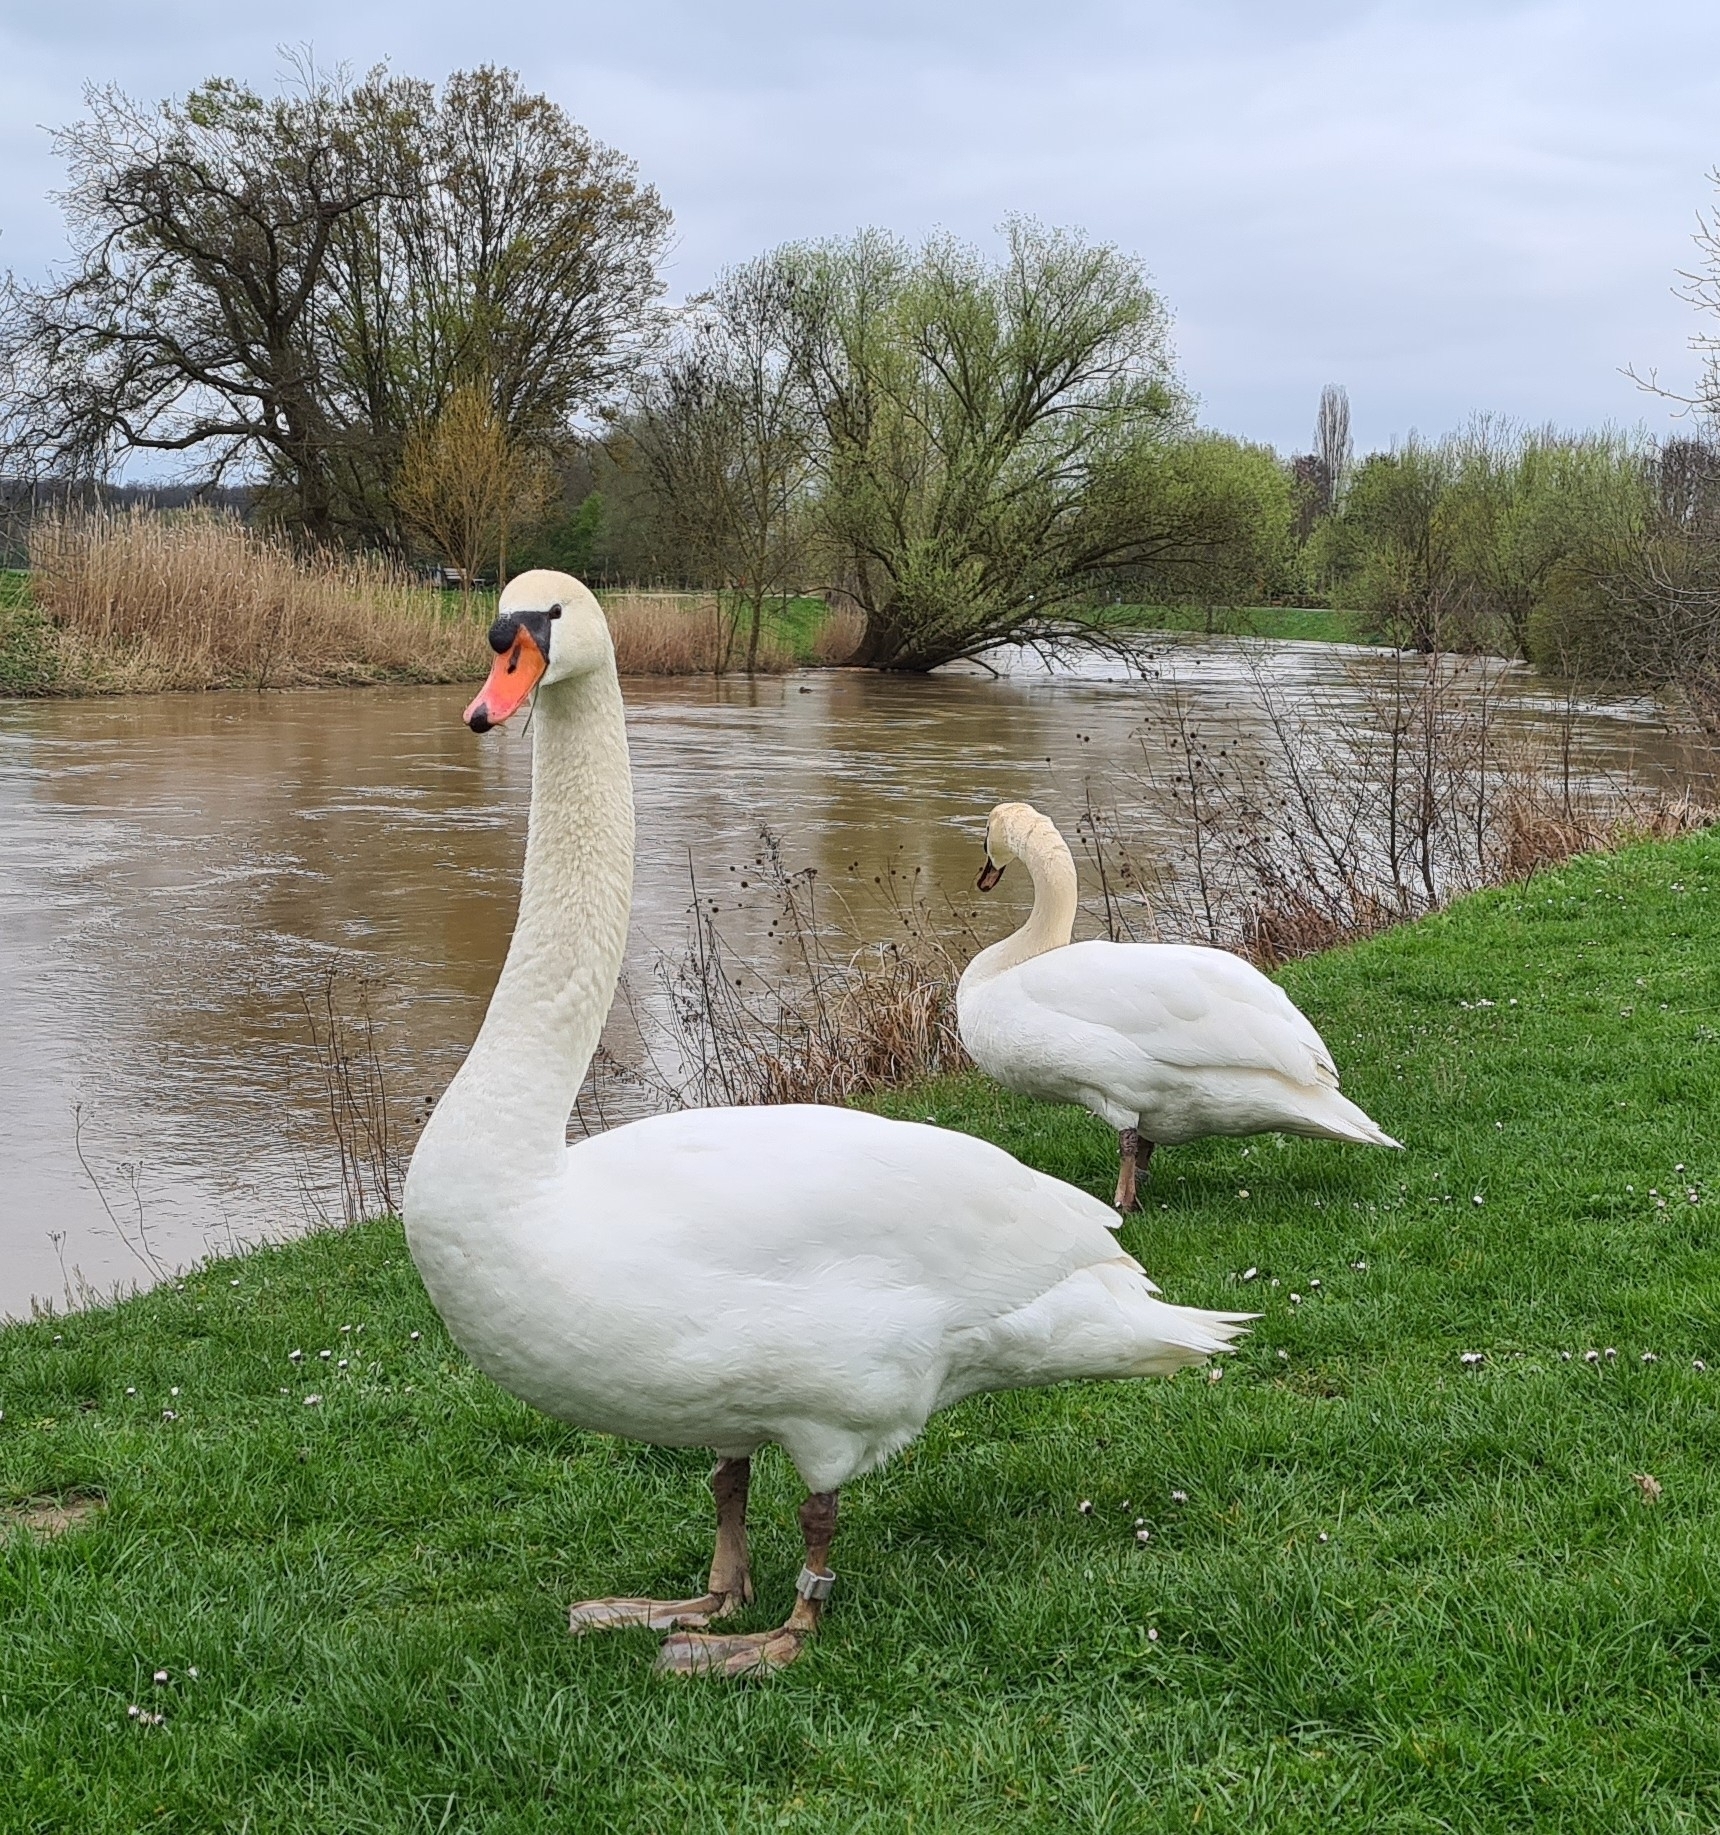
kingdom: Animalia
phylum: Chordata
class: Aves
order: Anseriformes
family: Anatidae
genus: Cygnus
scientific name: Cygnus olor
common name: Mute swan
